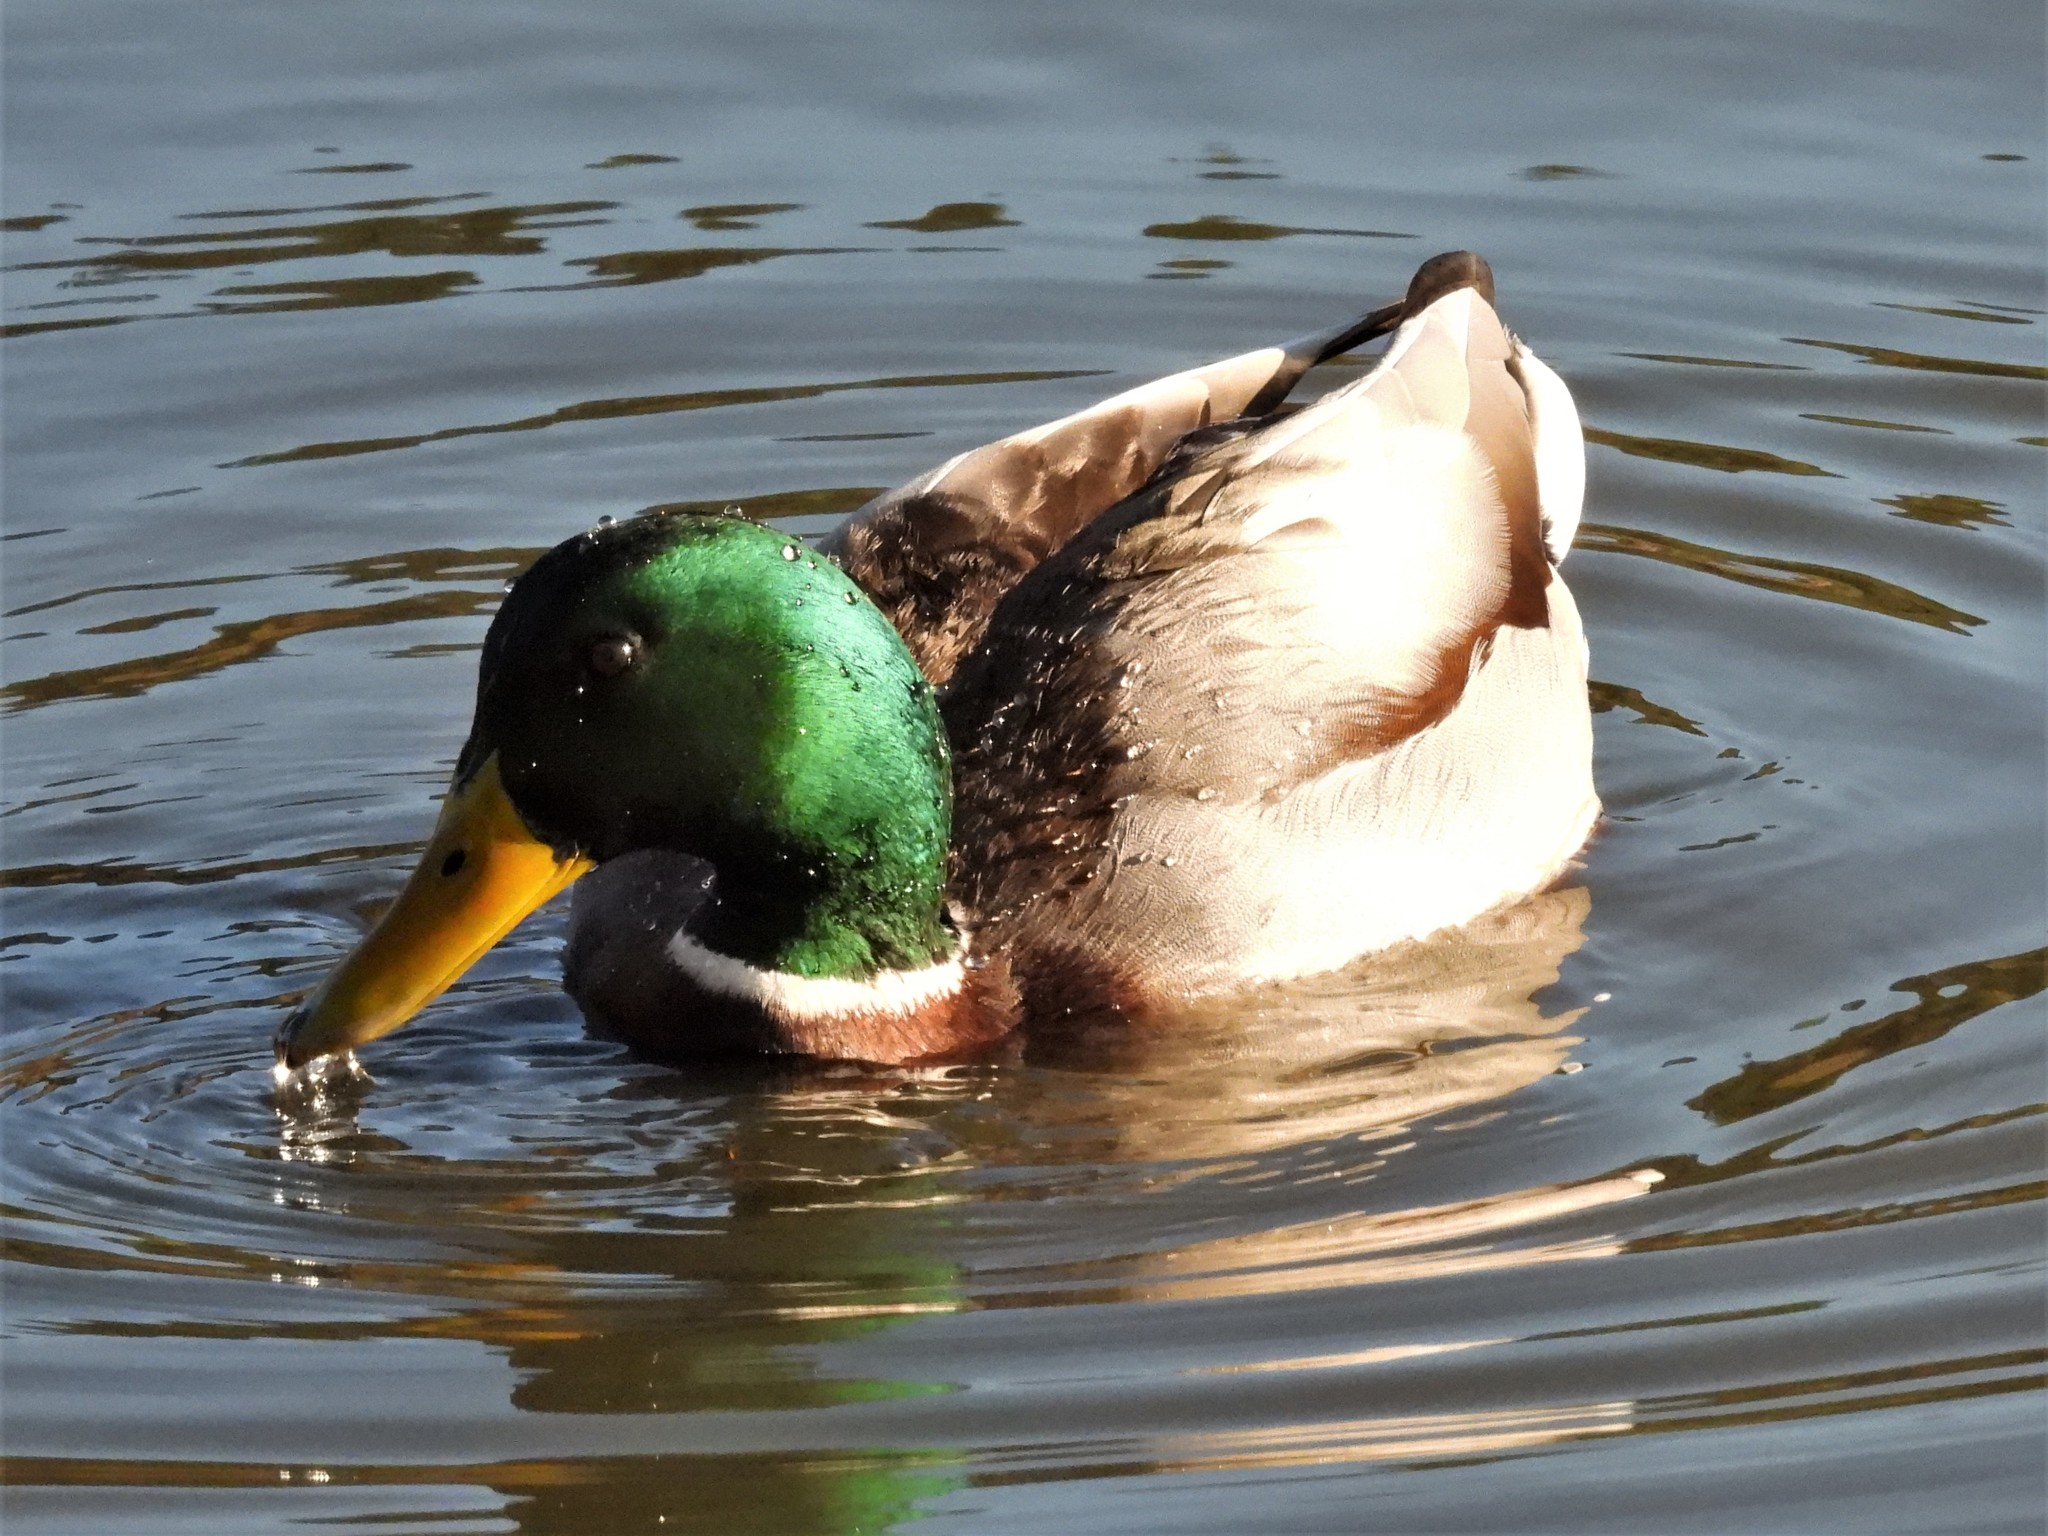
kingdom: Animalia
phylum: Chordata
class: Aves
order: Anseriformes
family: Anatidae
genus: Anas
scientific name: Anas platyrhynchos
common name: Mallard
